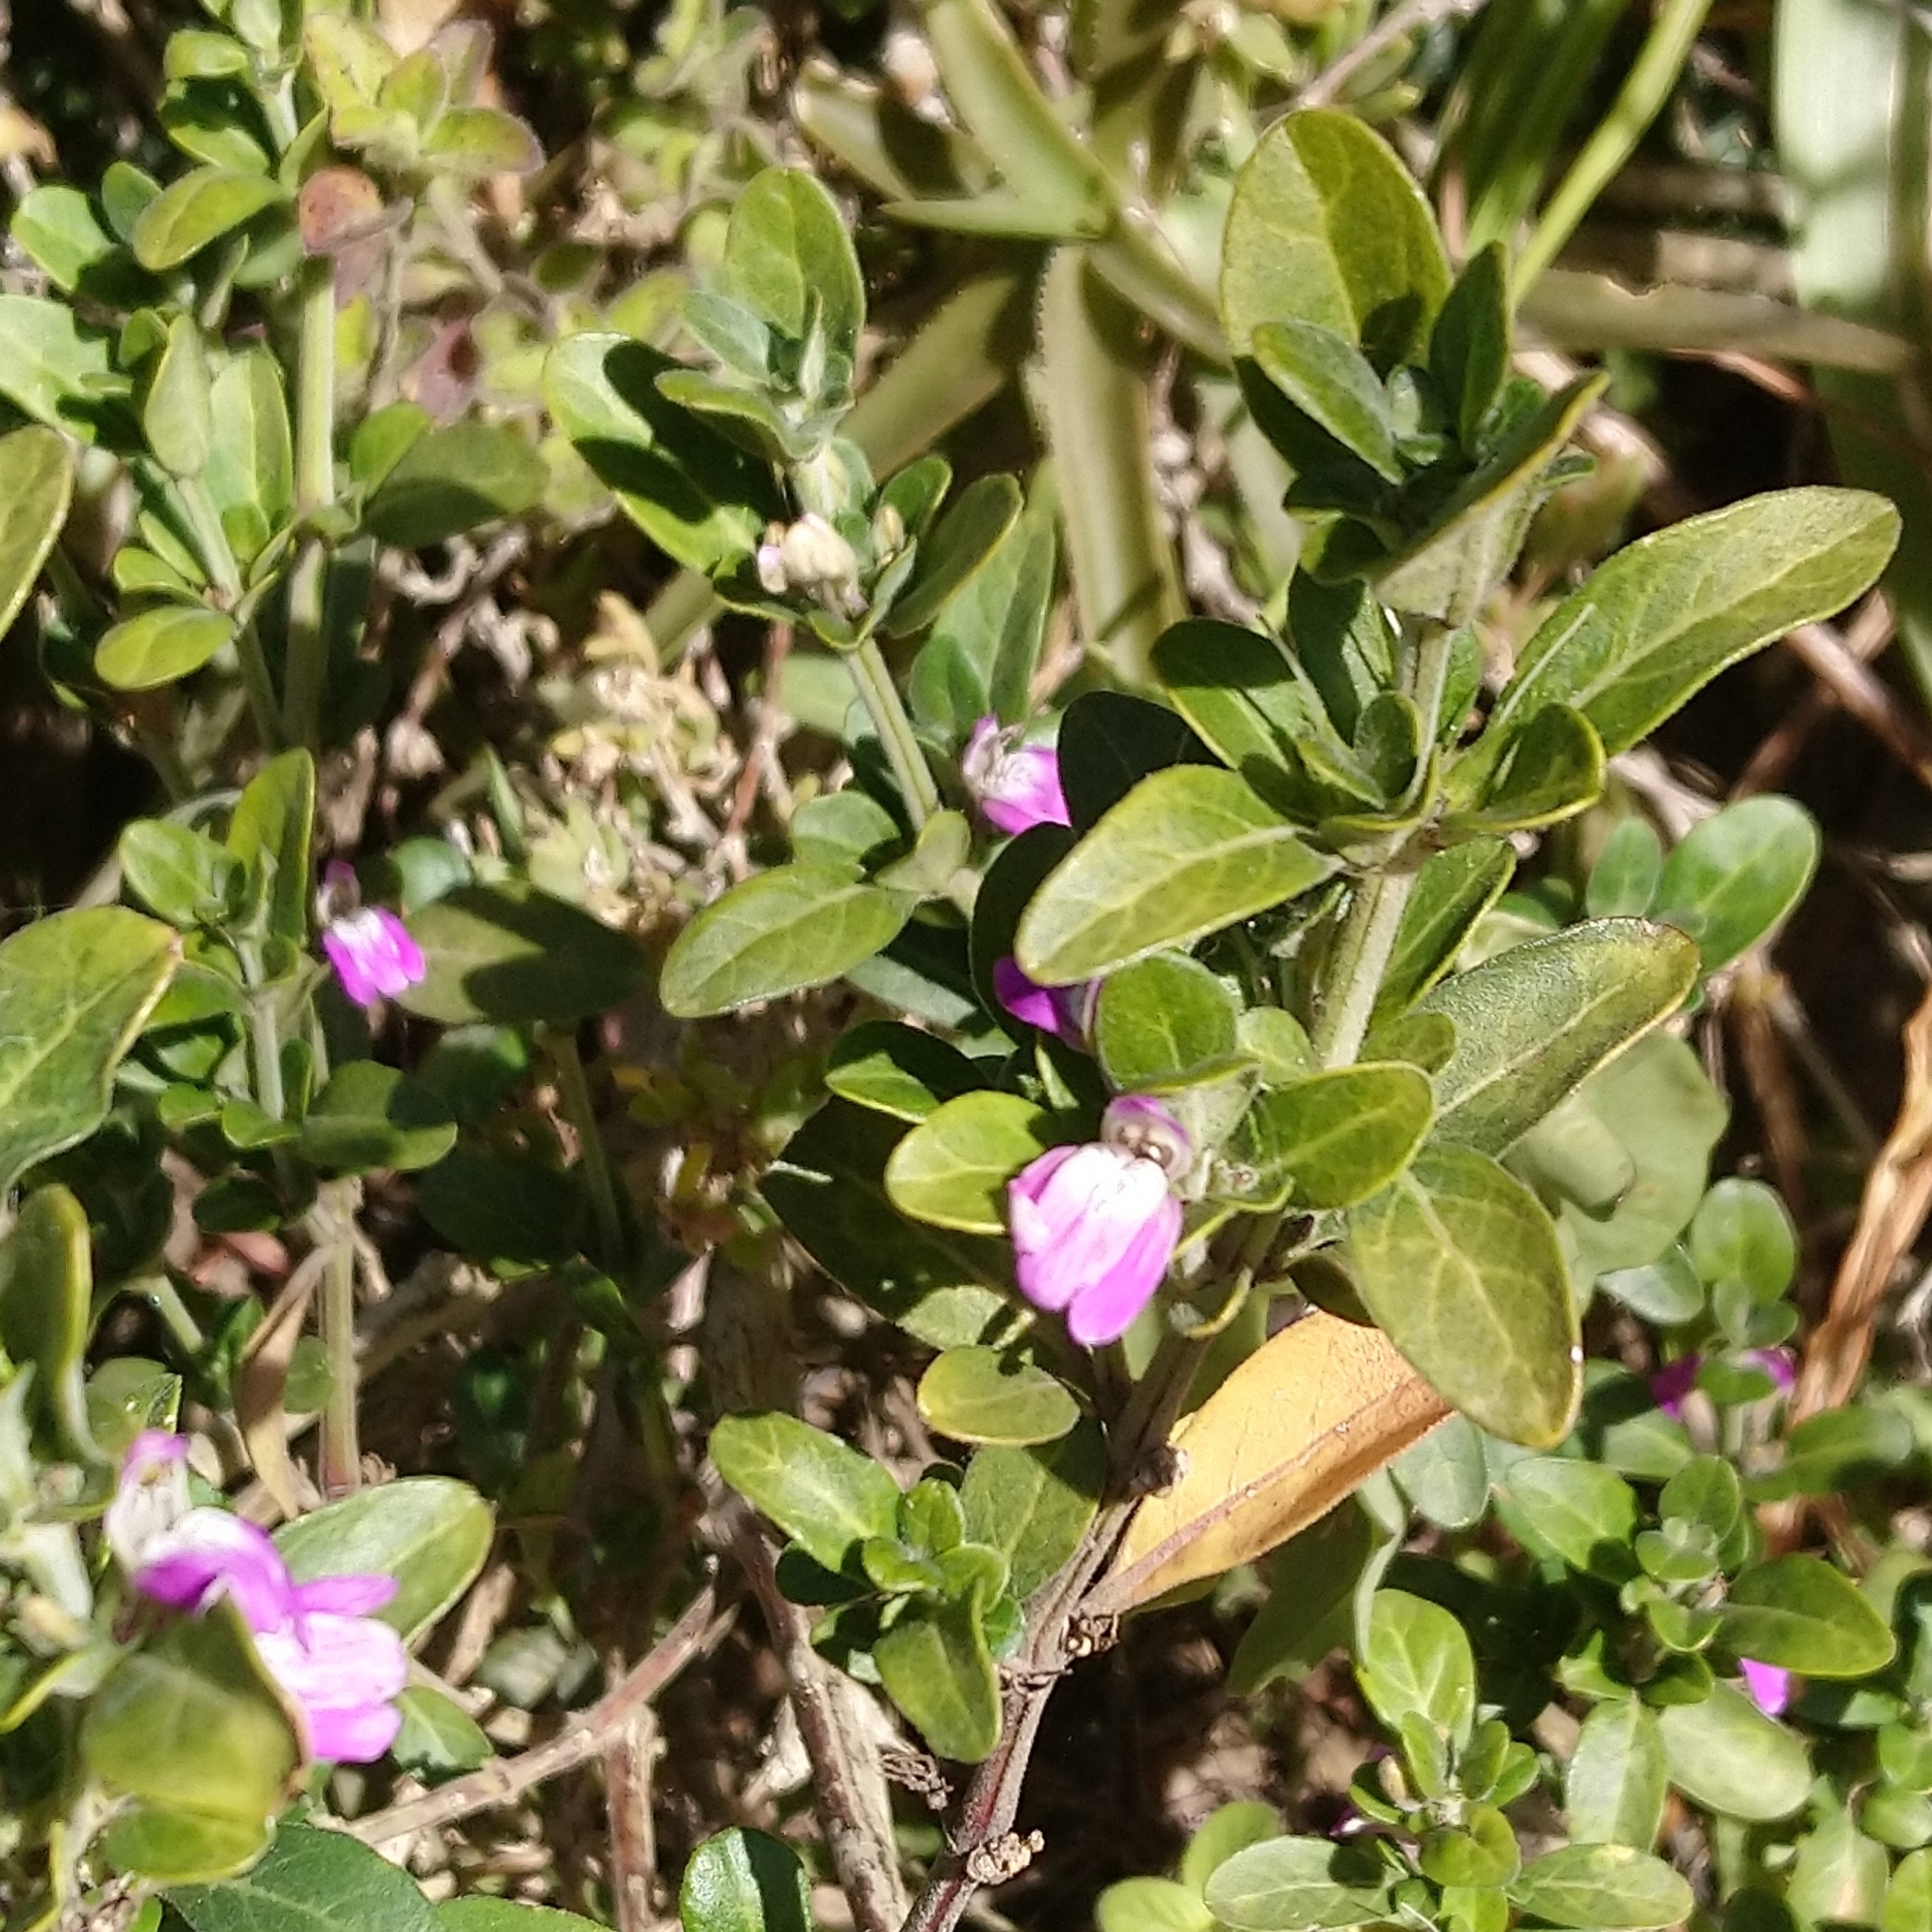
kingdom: Plantae
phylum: Tracheophyta
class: Magnoliopsida
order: Lamiales
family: Acanthaceae
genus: Justicia
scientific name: Justicia capensis
